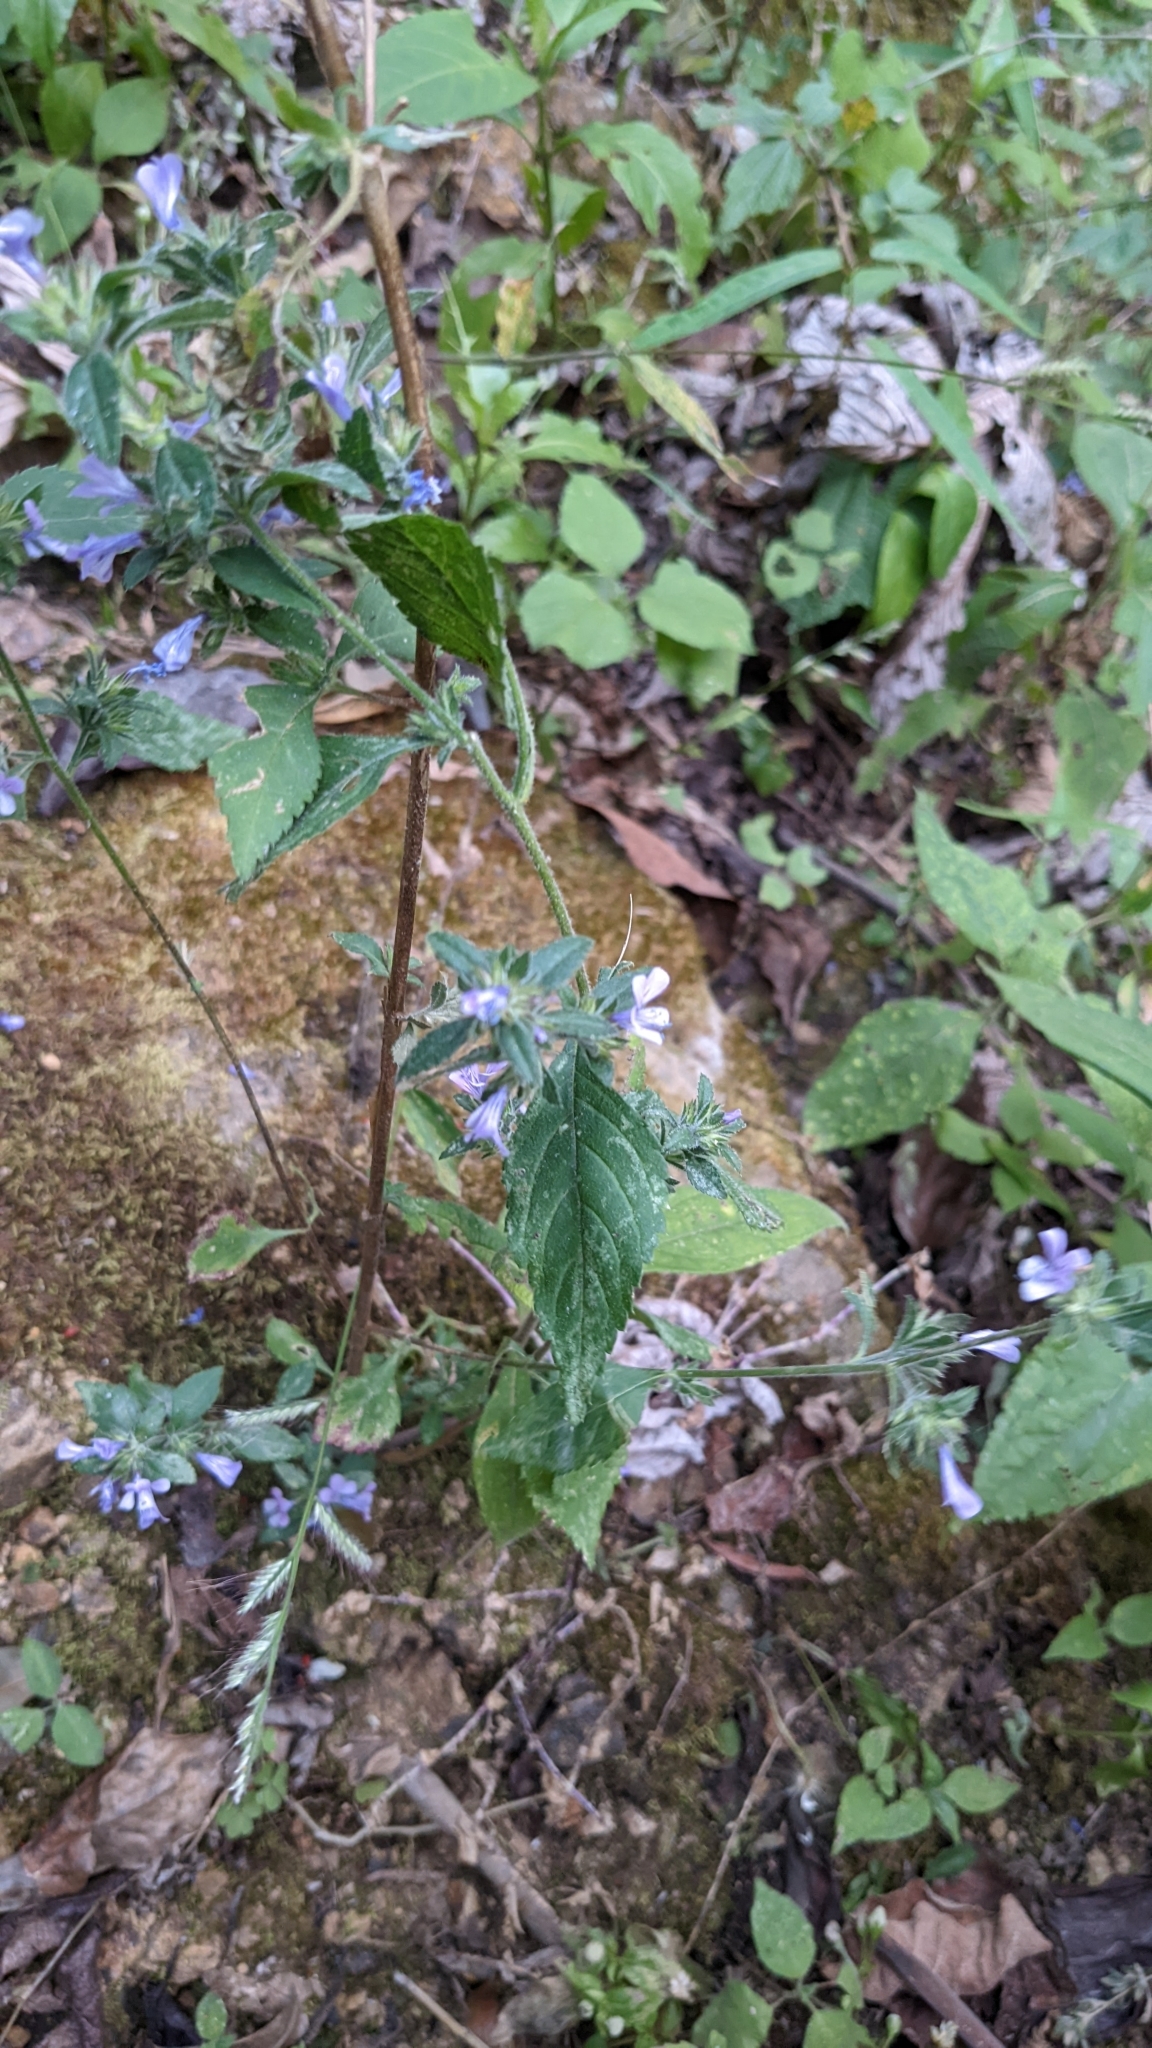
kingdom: Plantae
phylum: Tracheophyta
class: Magnoliopsida
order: Ericales
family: Polemoniaceae
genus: Loeselia
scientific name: Loeselia glandulosa
